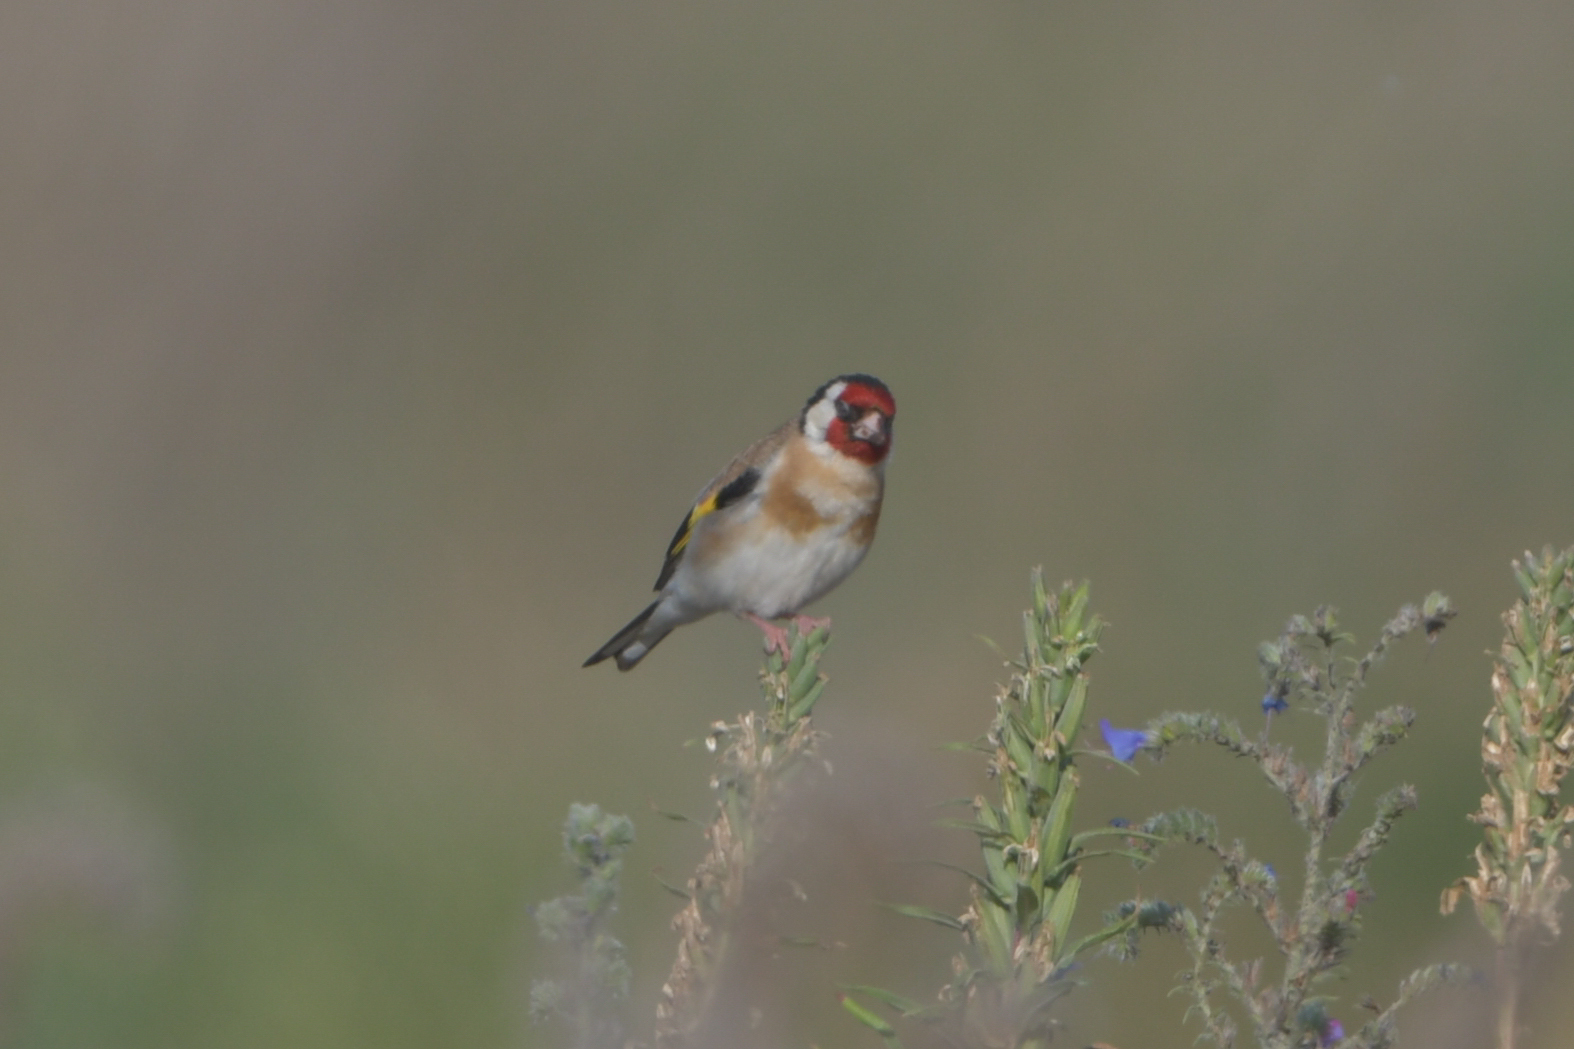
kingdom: Animalia
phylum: Chordata
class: Aves
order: Passeriformes
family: Fringillidae
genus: Carduelis
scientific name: Carduelis carduelis
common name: European goldfinch
